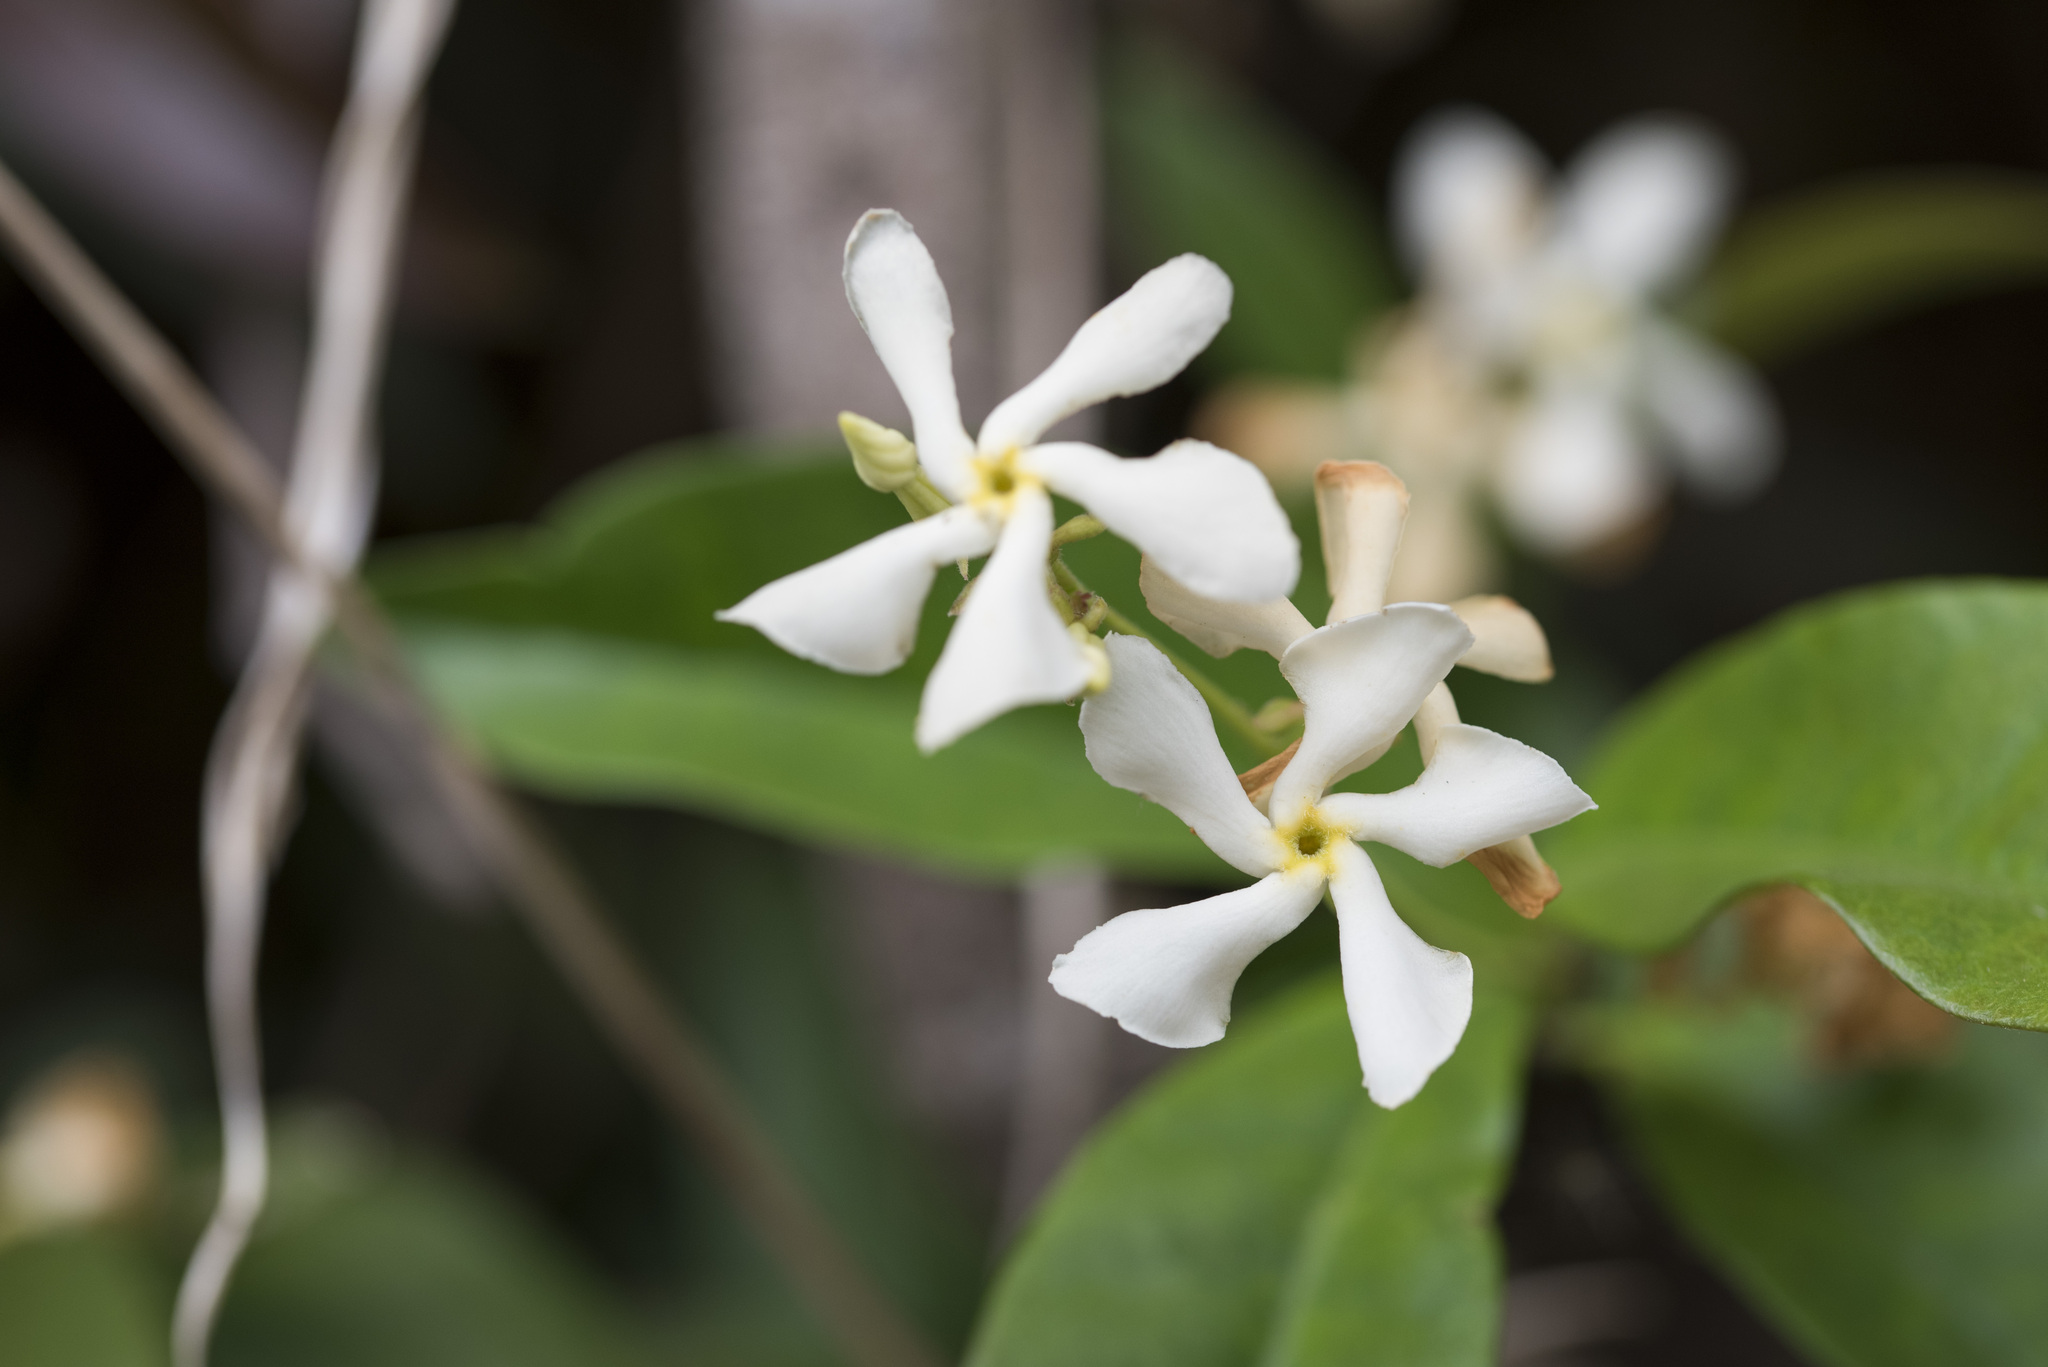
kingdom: Plantae
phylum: Tracheophyta
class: Magnoliopsida
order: Gentianales
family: Apocynaceae
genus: Trachelospermum
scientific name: Trachelospermum jasminoides
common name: Confederate jasmine
